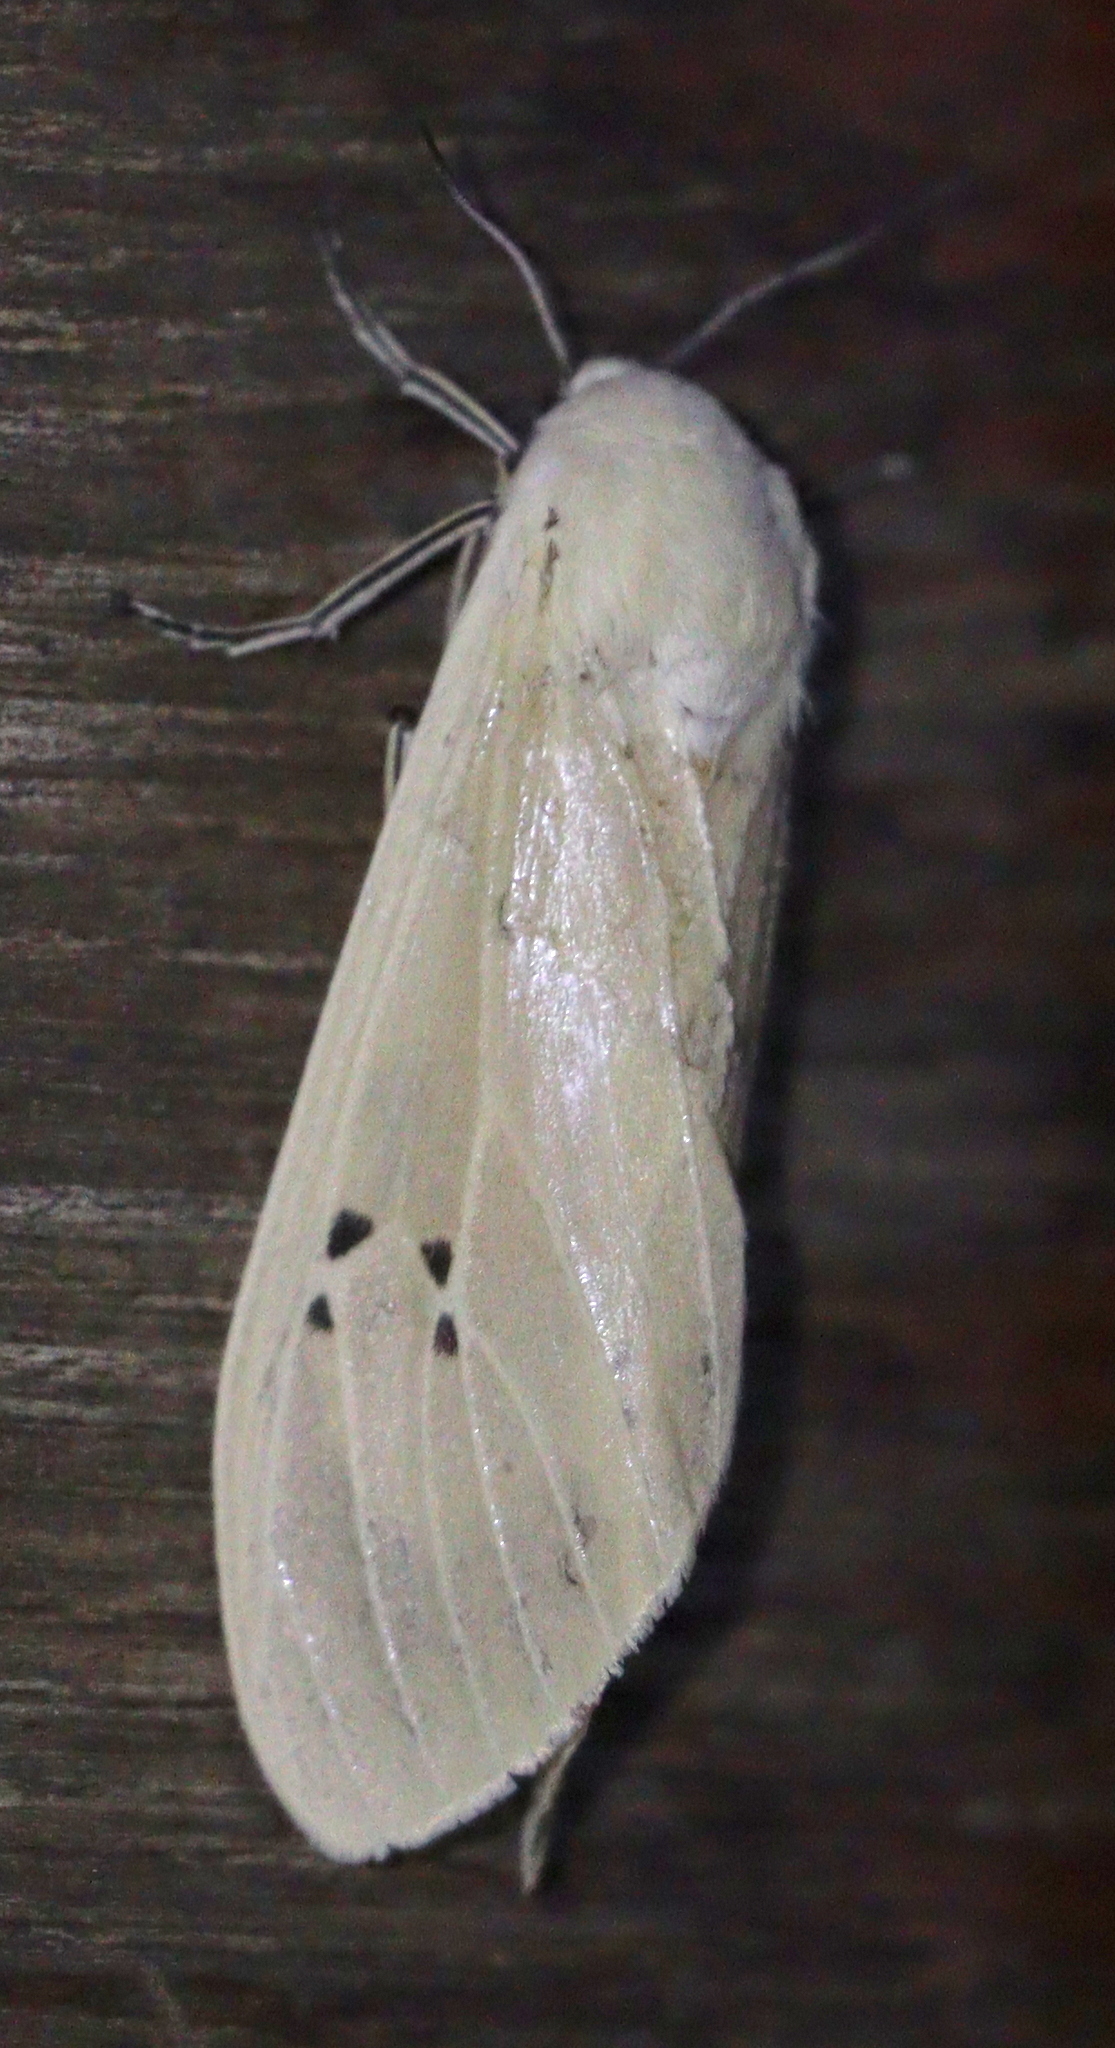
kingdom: Animalia
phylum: Arthropoda
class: Insecta
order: Lepidoptera
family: Erebidae
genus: Creatonotos
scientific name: Creatonotos transiens
